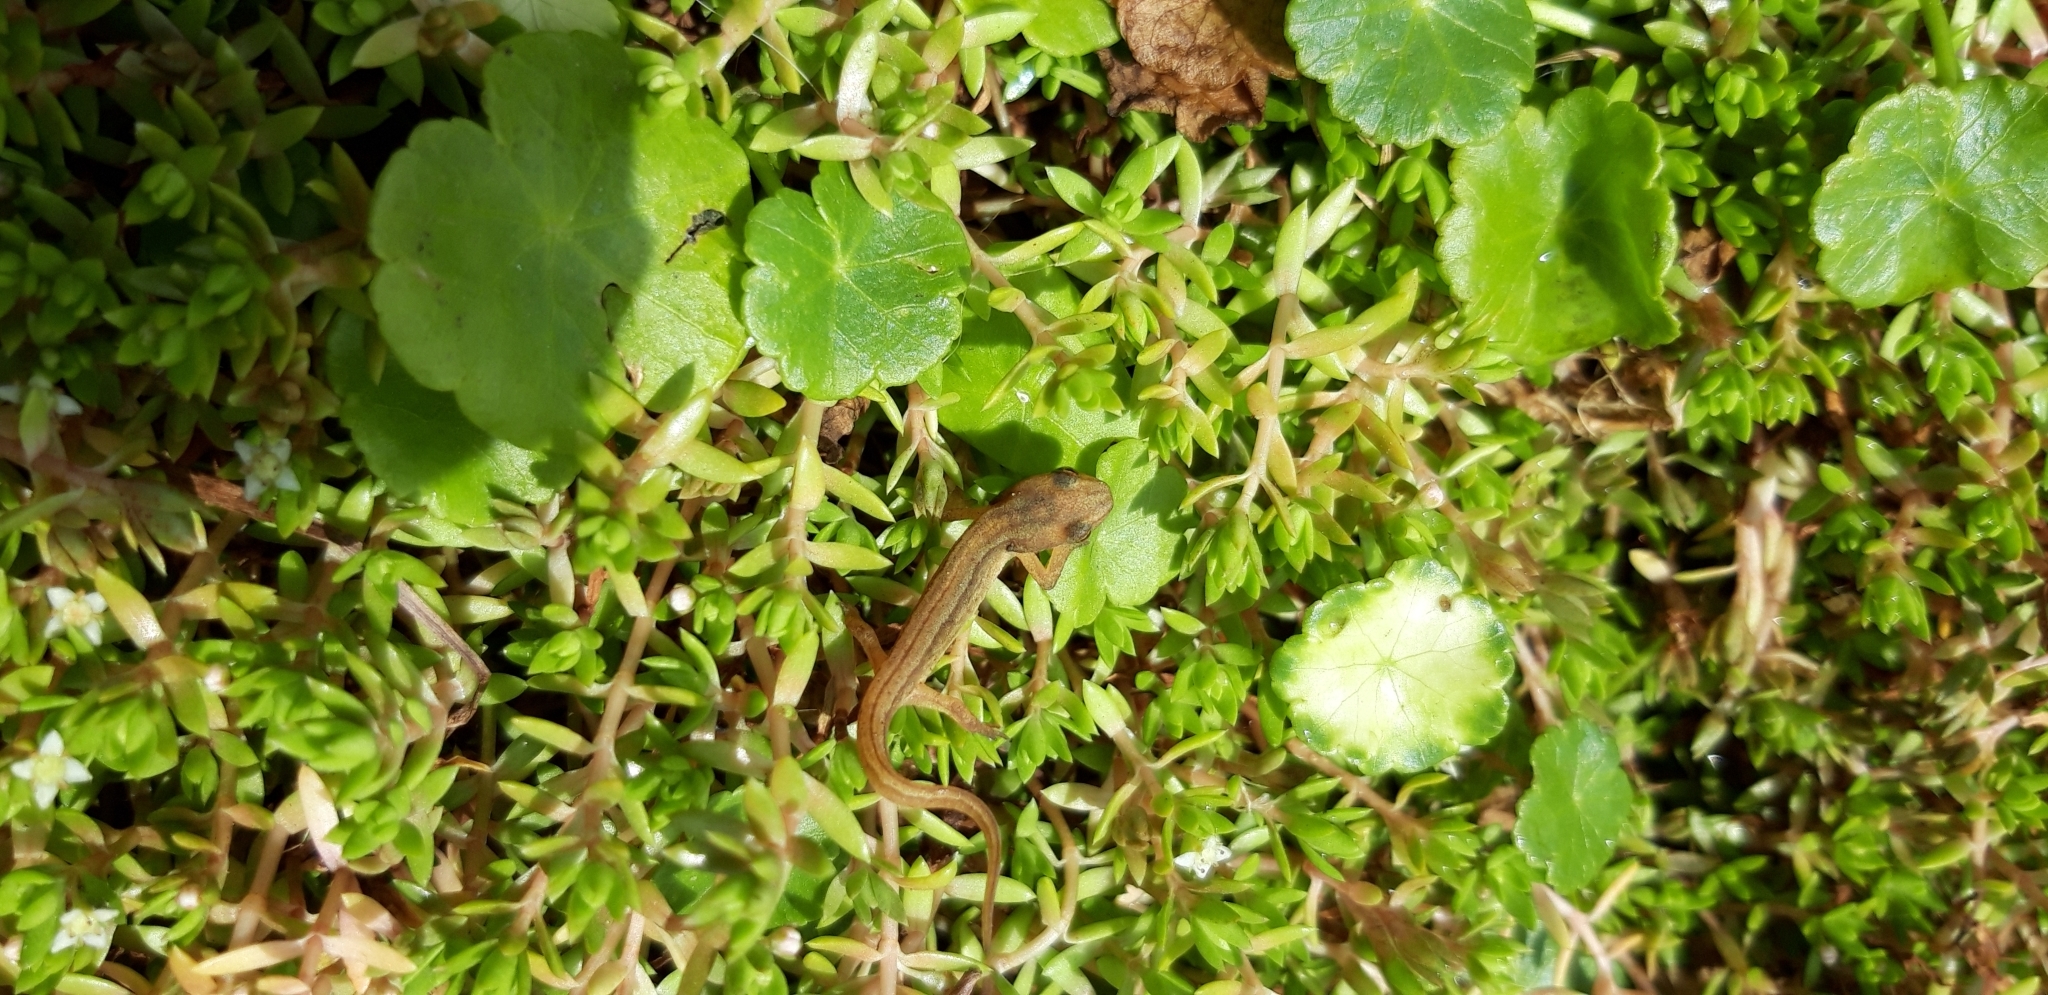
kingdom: Animalia
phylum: Chordata
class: Amphibia
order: Caudata
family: Salamandridae
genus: Lissotriton
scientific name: Lissotriton vulgaris
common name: Smooth newt
